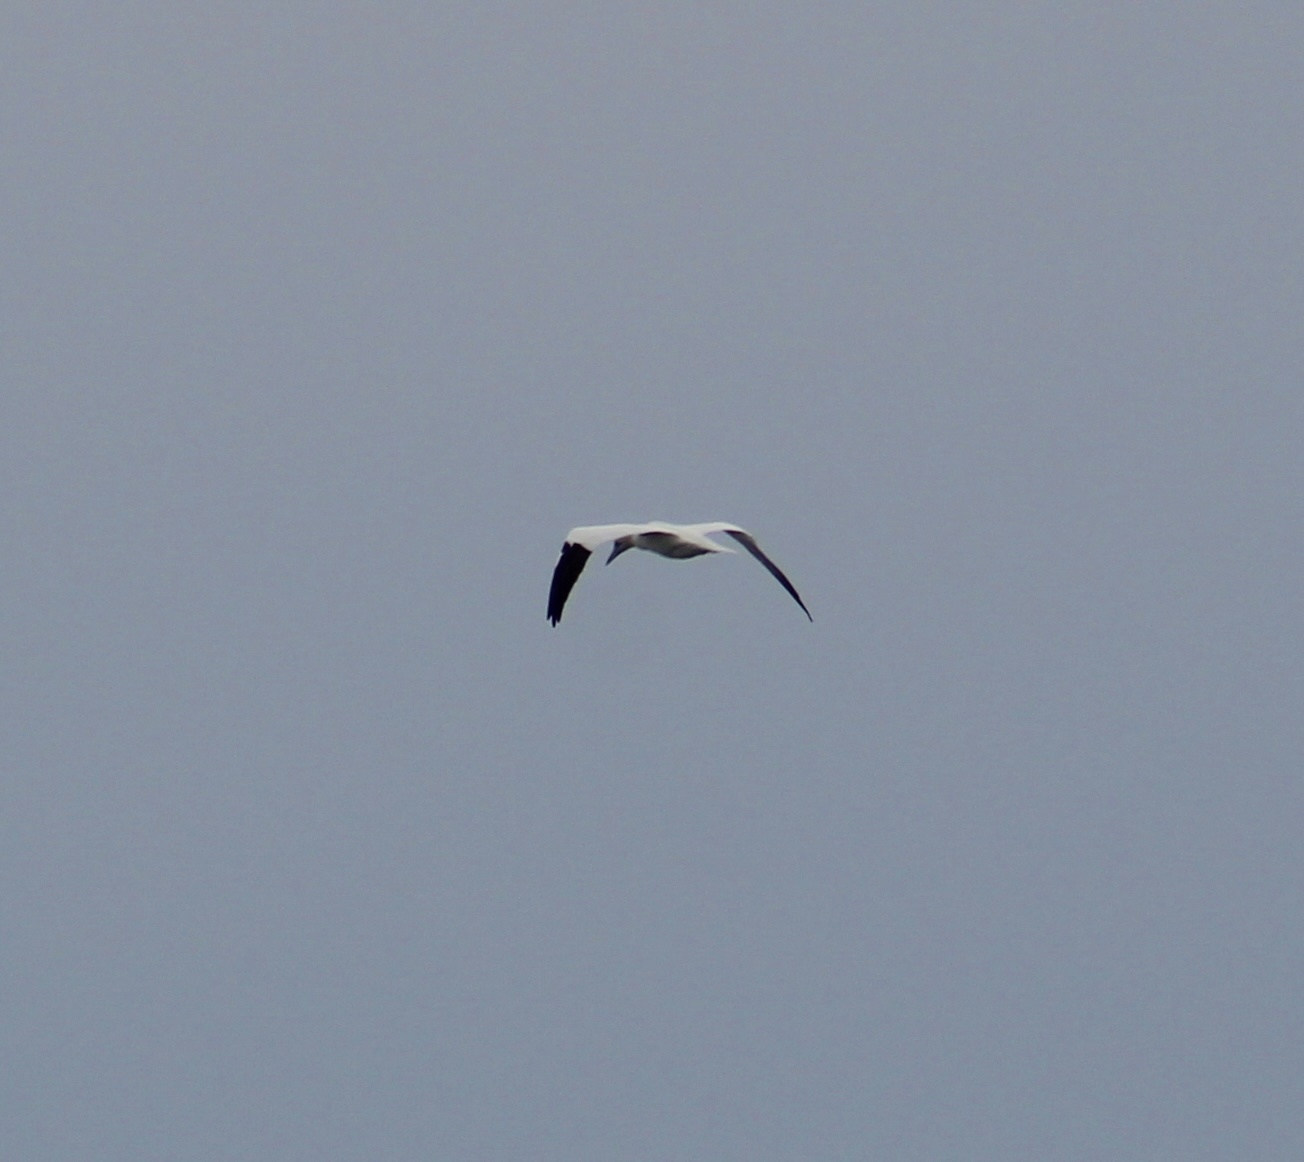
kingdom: Animalia
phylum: Chordata
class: Aves
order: Suliformes
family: Sulidae
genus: Morus
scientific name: Morus bassanus
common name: Northern gannet
